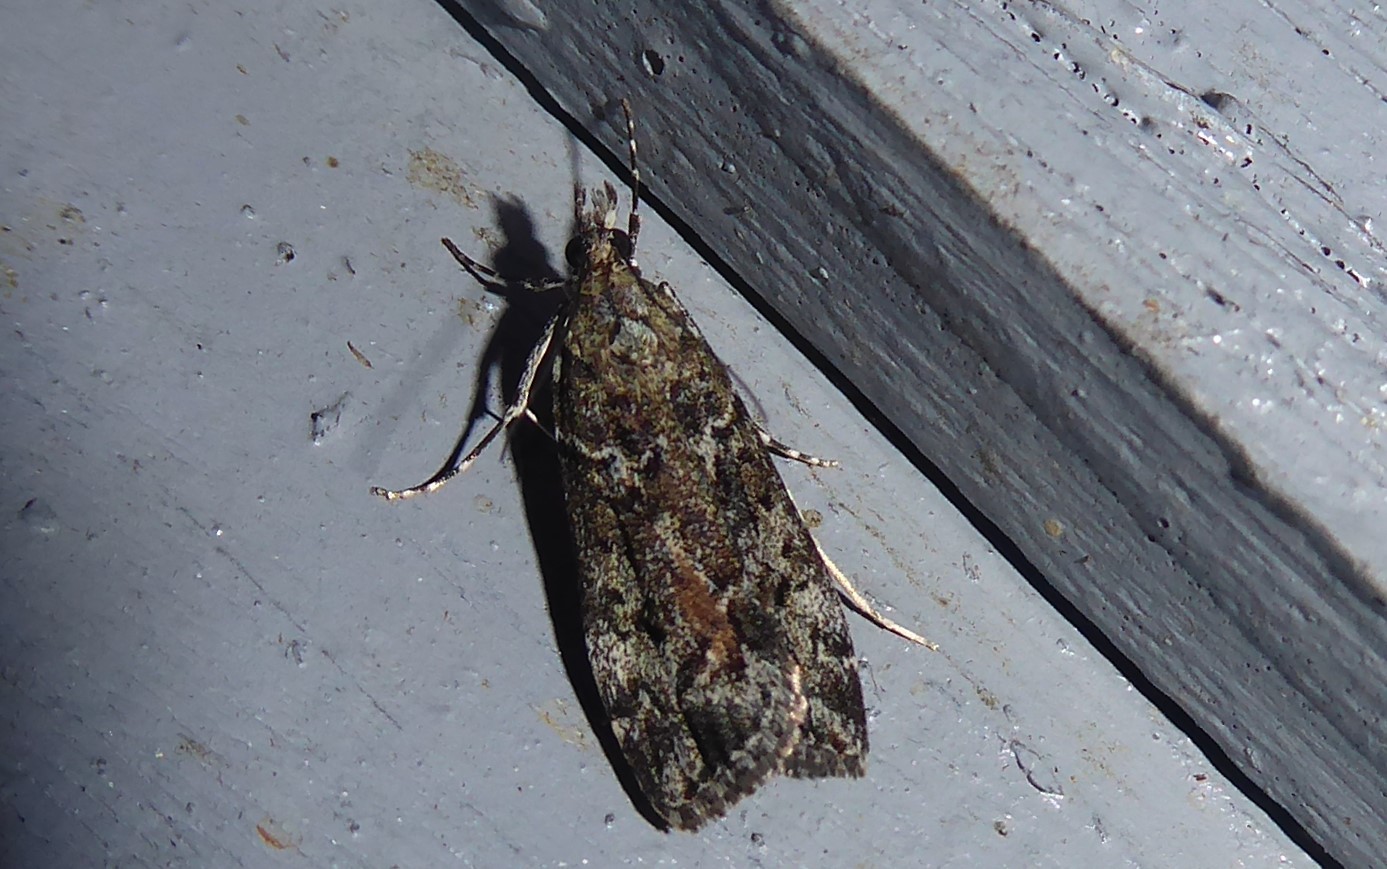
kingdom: Animalia
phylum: Arthropoda
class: Insecta
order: Lepidoptera
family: Crambidae
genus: Eudonia
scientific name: Eudonia submarginalis
